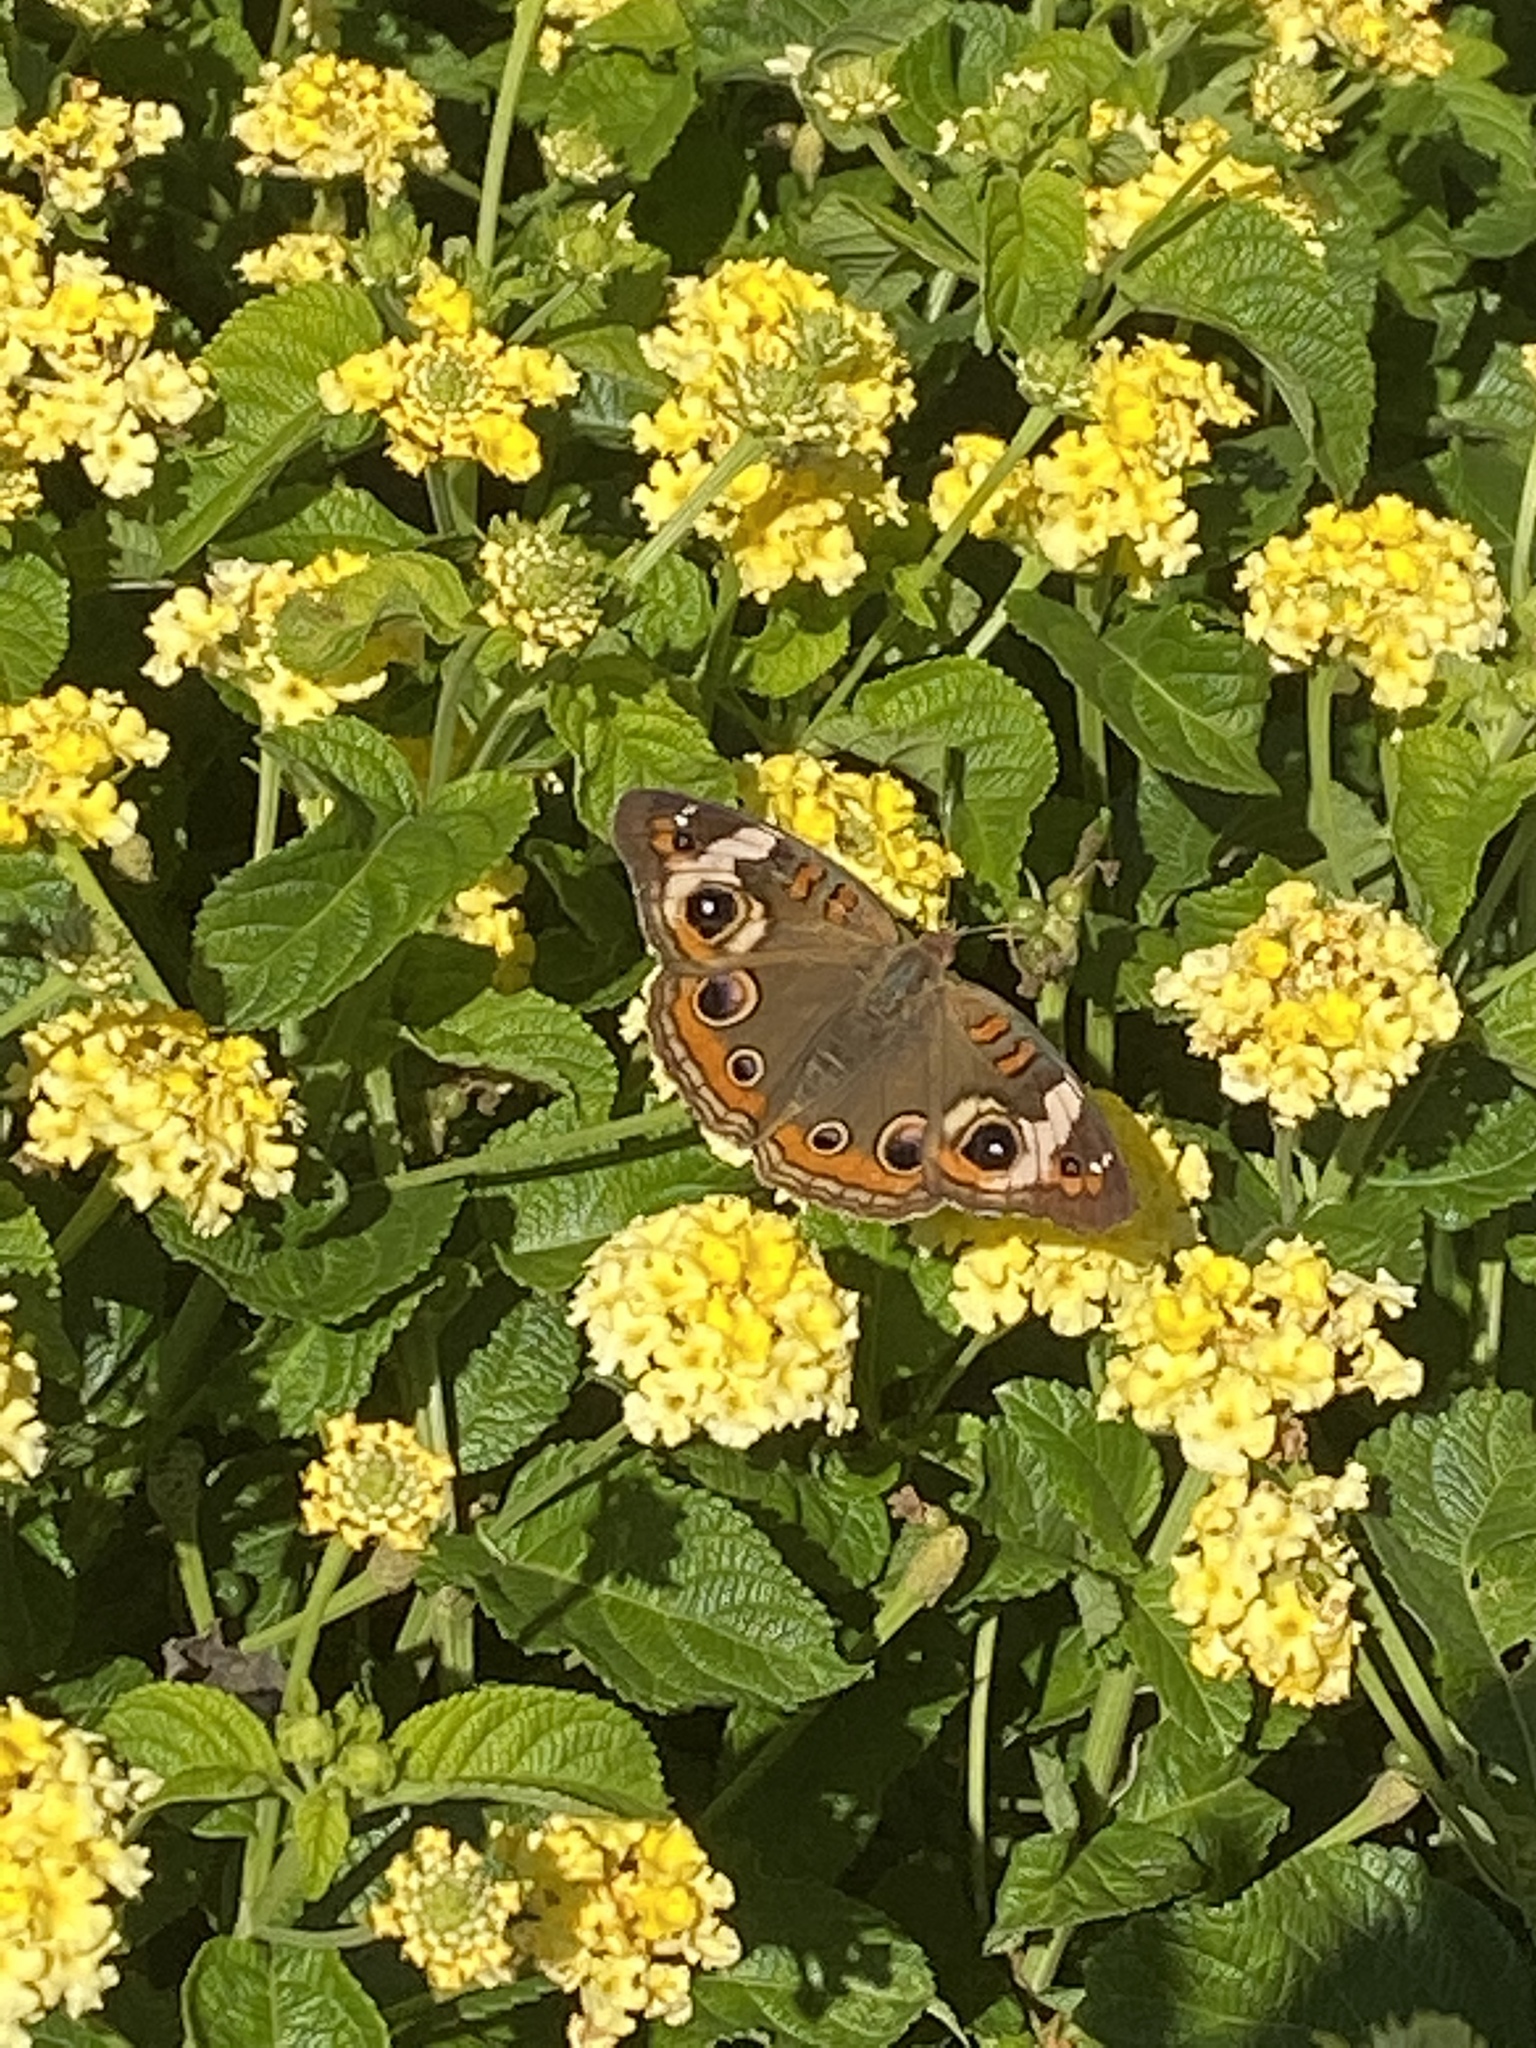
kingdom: Animalia
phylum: Arthropoda
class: Insecta
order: Lepidoptera
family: Nymphalidae
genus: Junonia
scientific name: Junonia coenia
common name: Common buckeye
